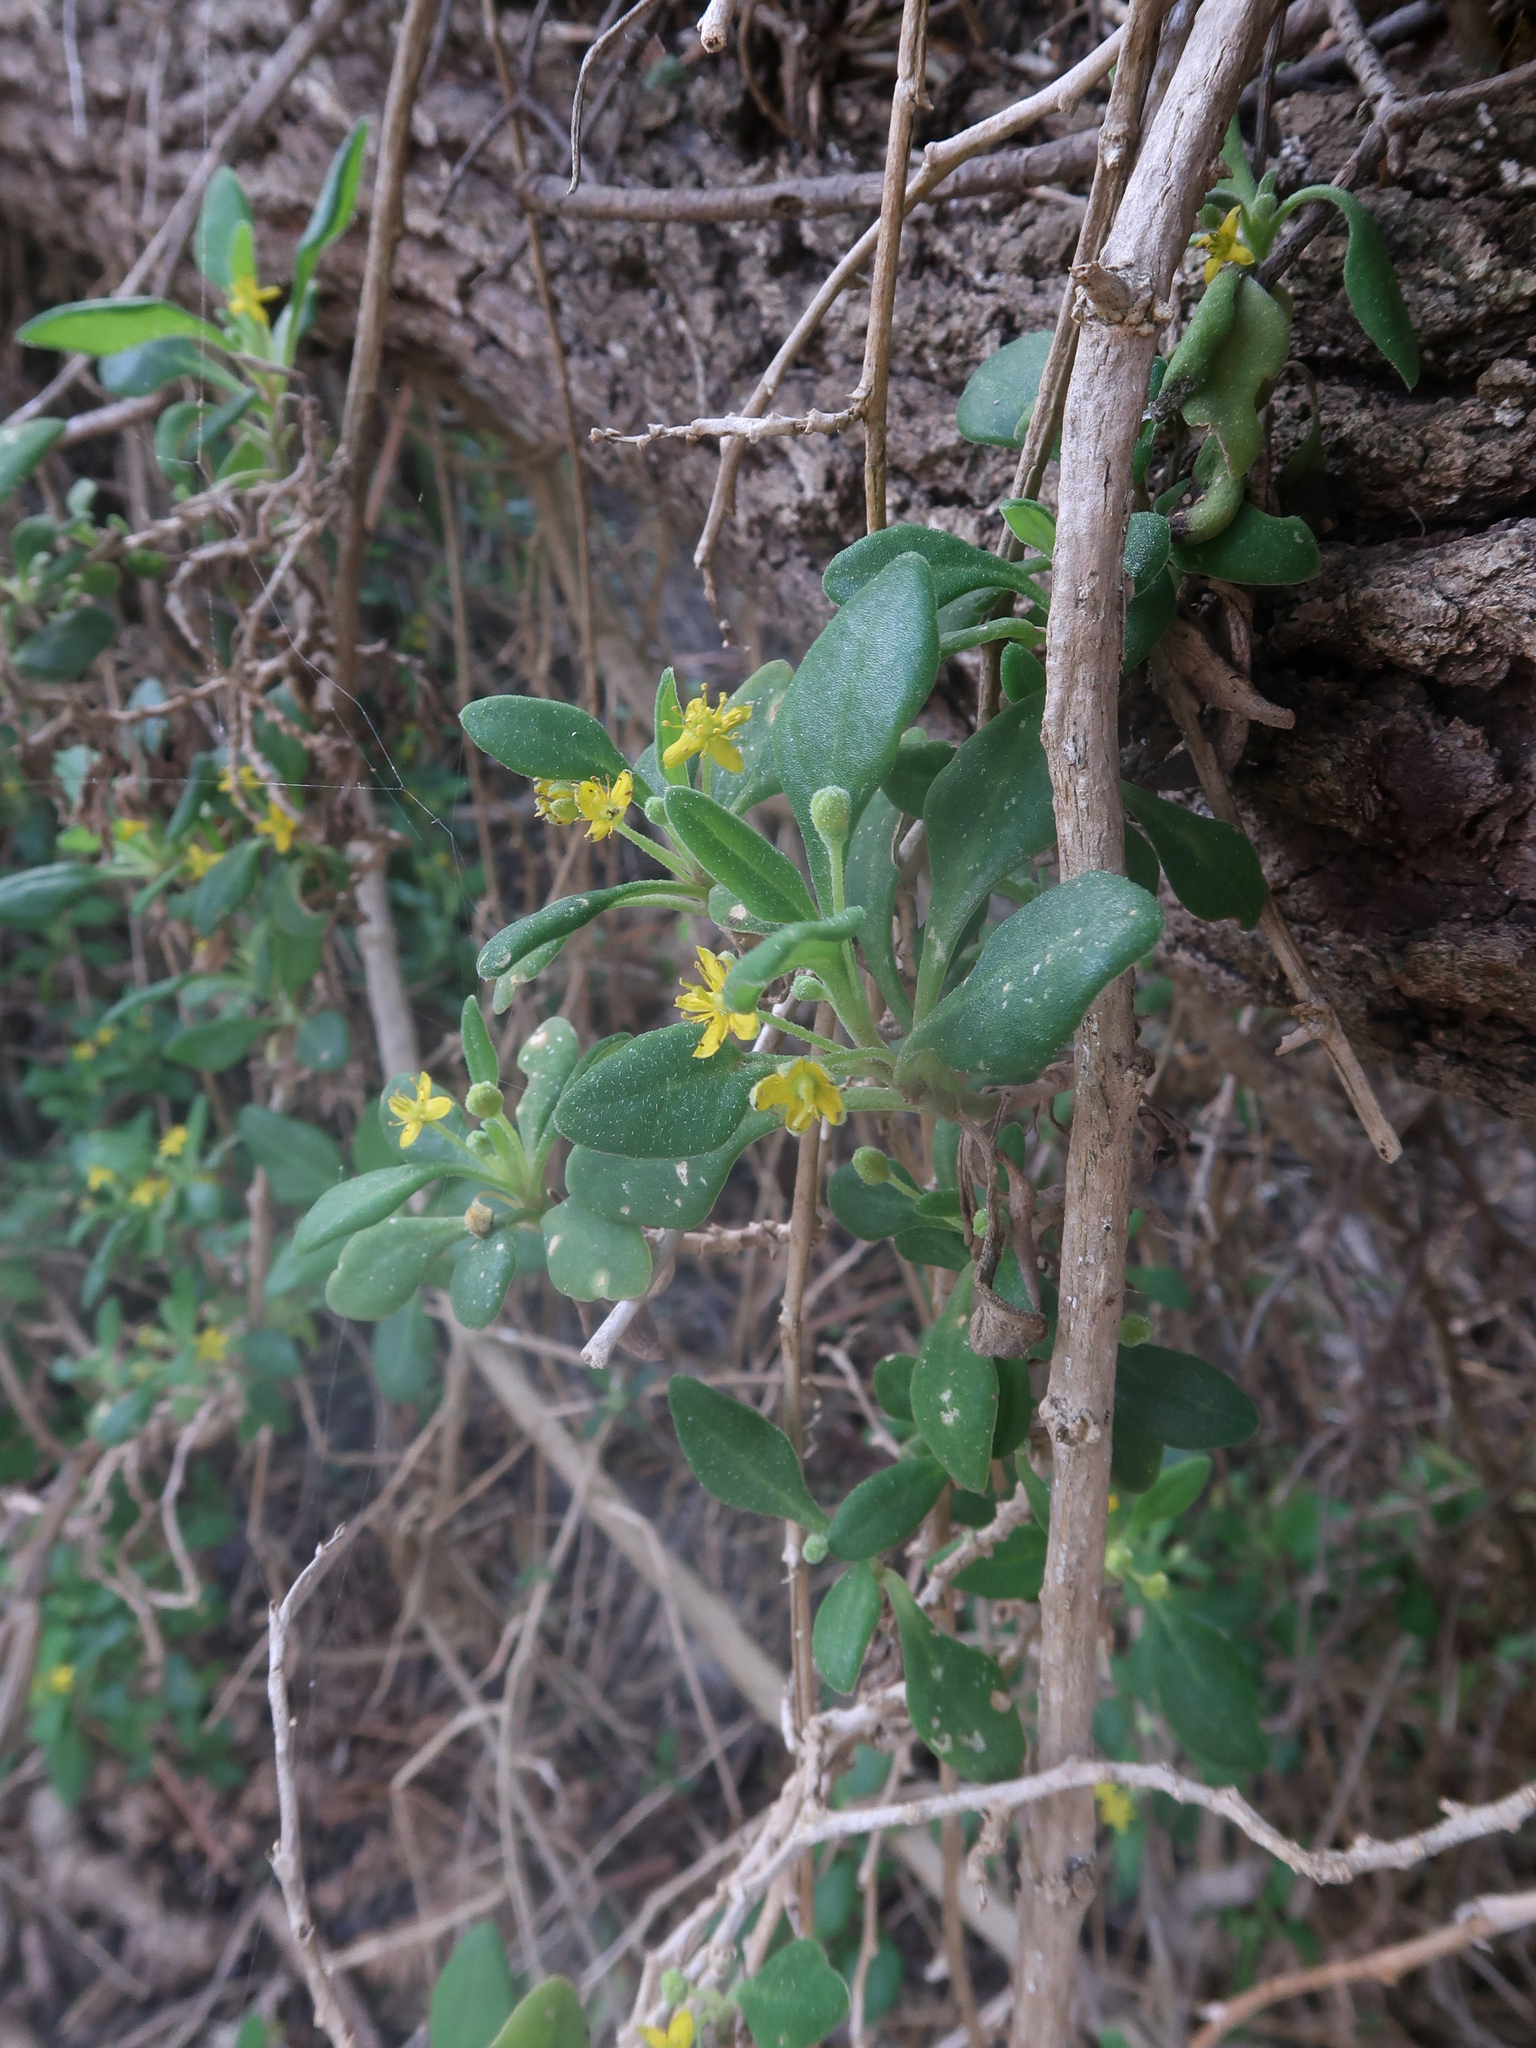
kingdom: Plantae
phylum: Tracheophyta
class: Magnoliopsida
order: Caryophyllales
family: Aizoaceae
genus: Tetragonia
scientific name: Tetragonia implexicoma
